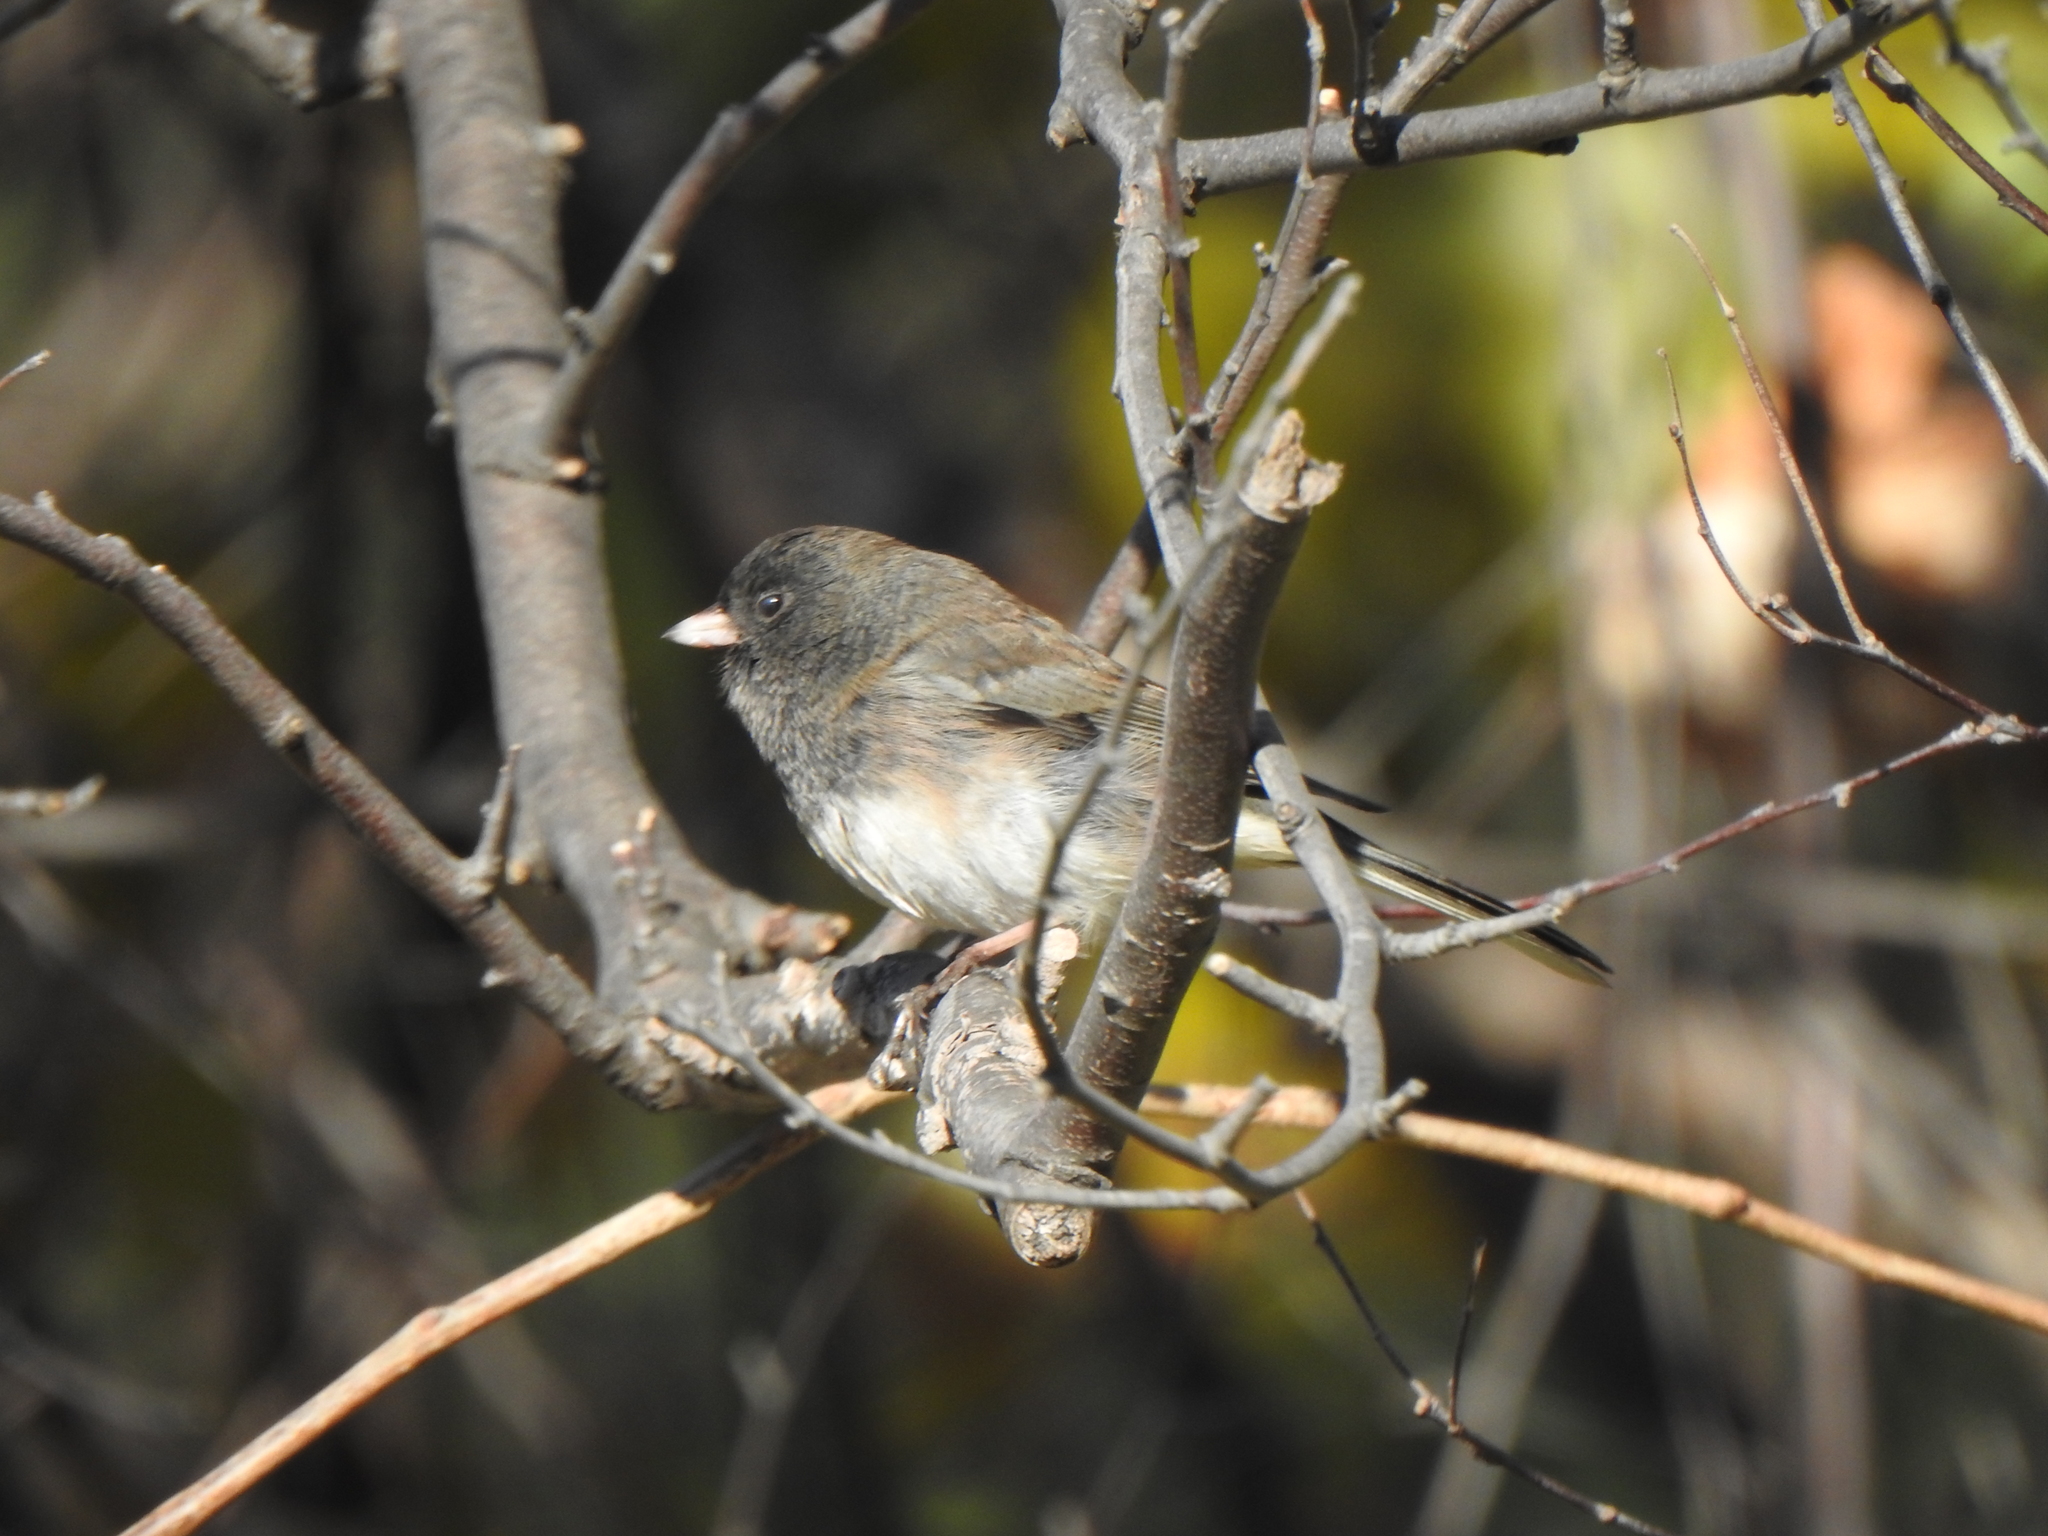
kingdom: Animalia
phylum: Chordata
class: Aves
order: Passeriformes
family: Passerellidae
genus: Junco
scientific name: Junco hyemalis
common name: Dark-eyed junco
